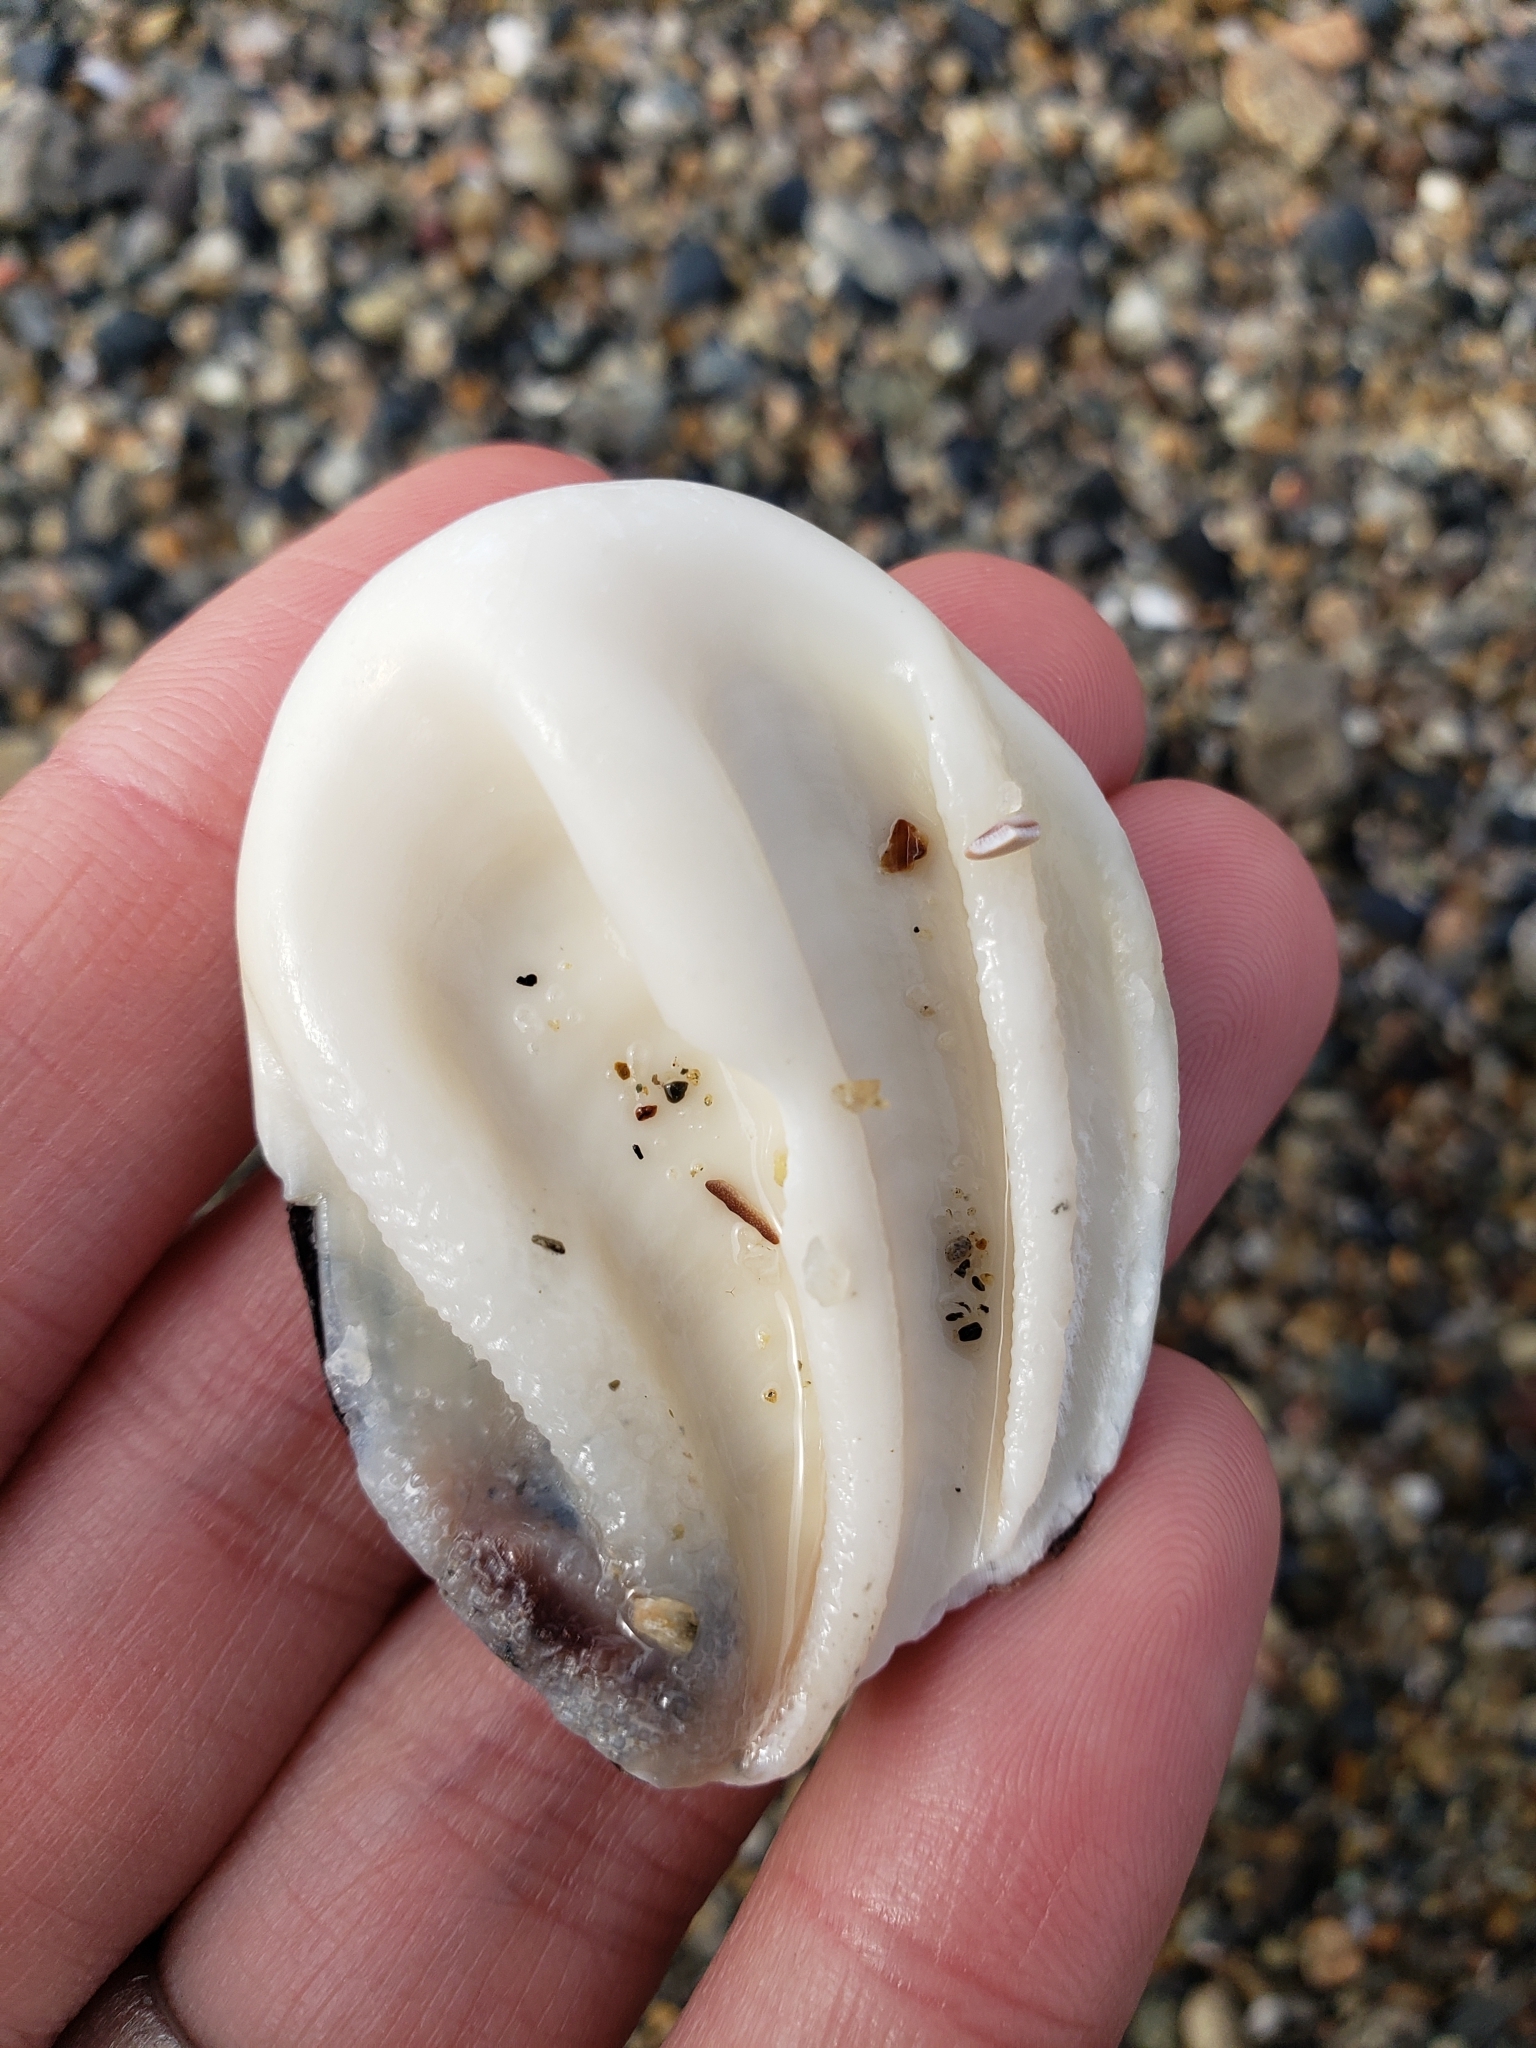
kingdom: Animalia
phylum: Mollusca
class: Gastropoda
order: Trochida
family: Turbinidae
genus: Megastraea
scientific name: Megastraea undosa
